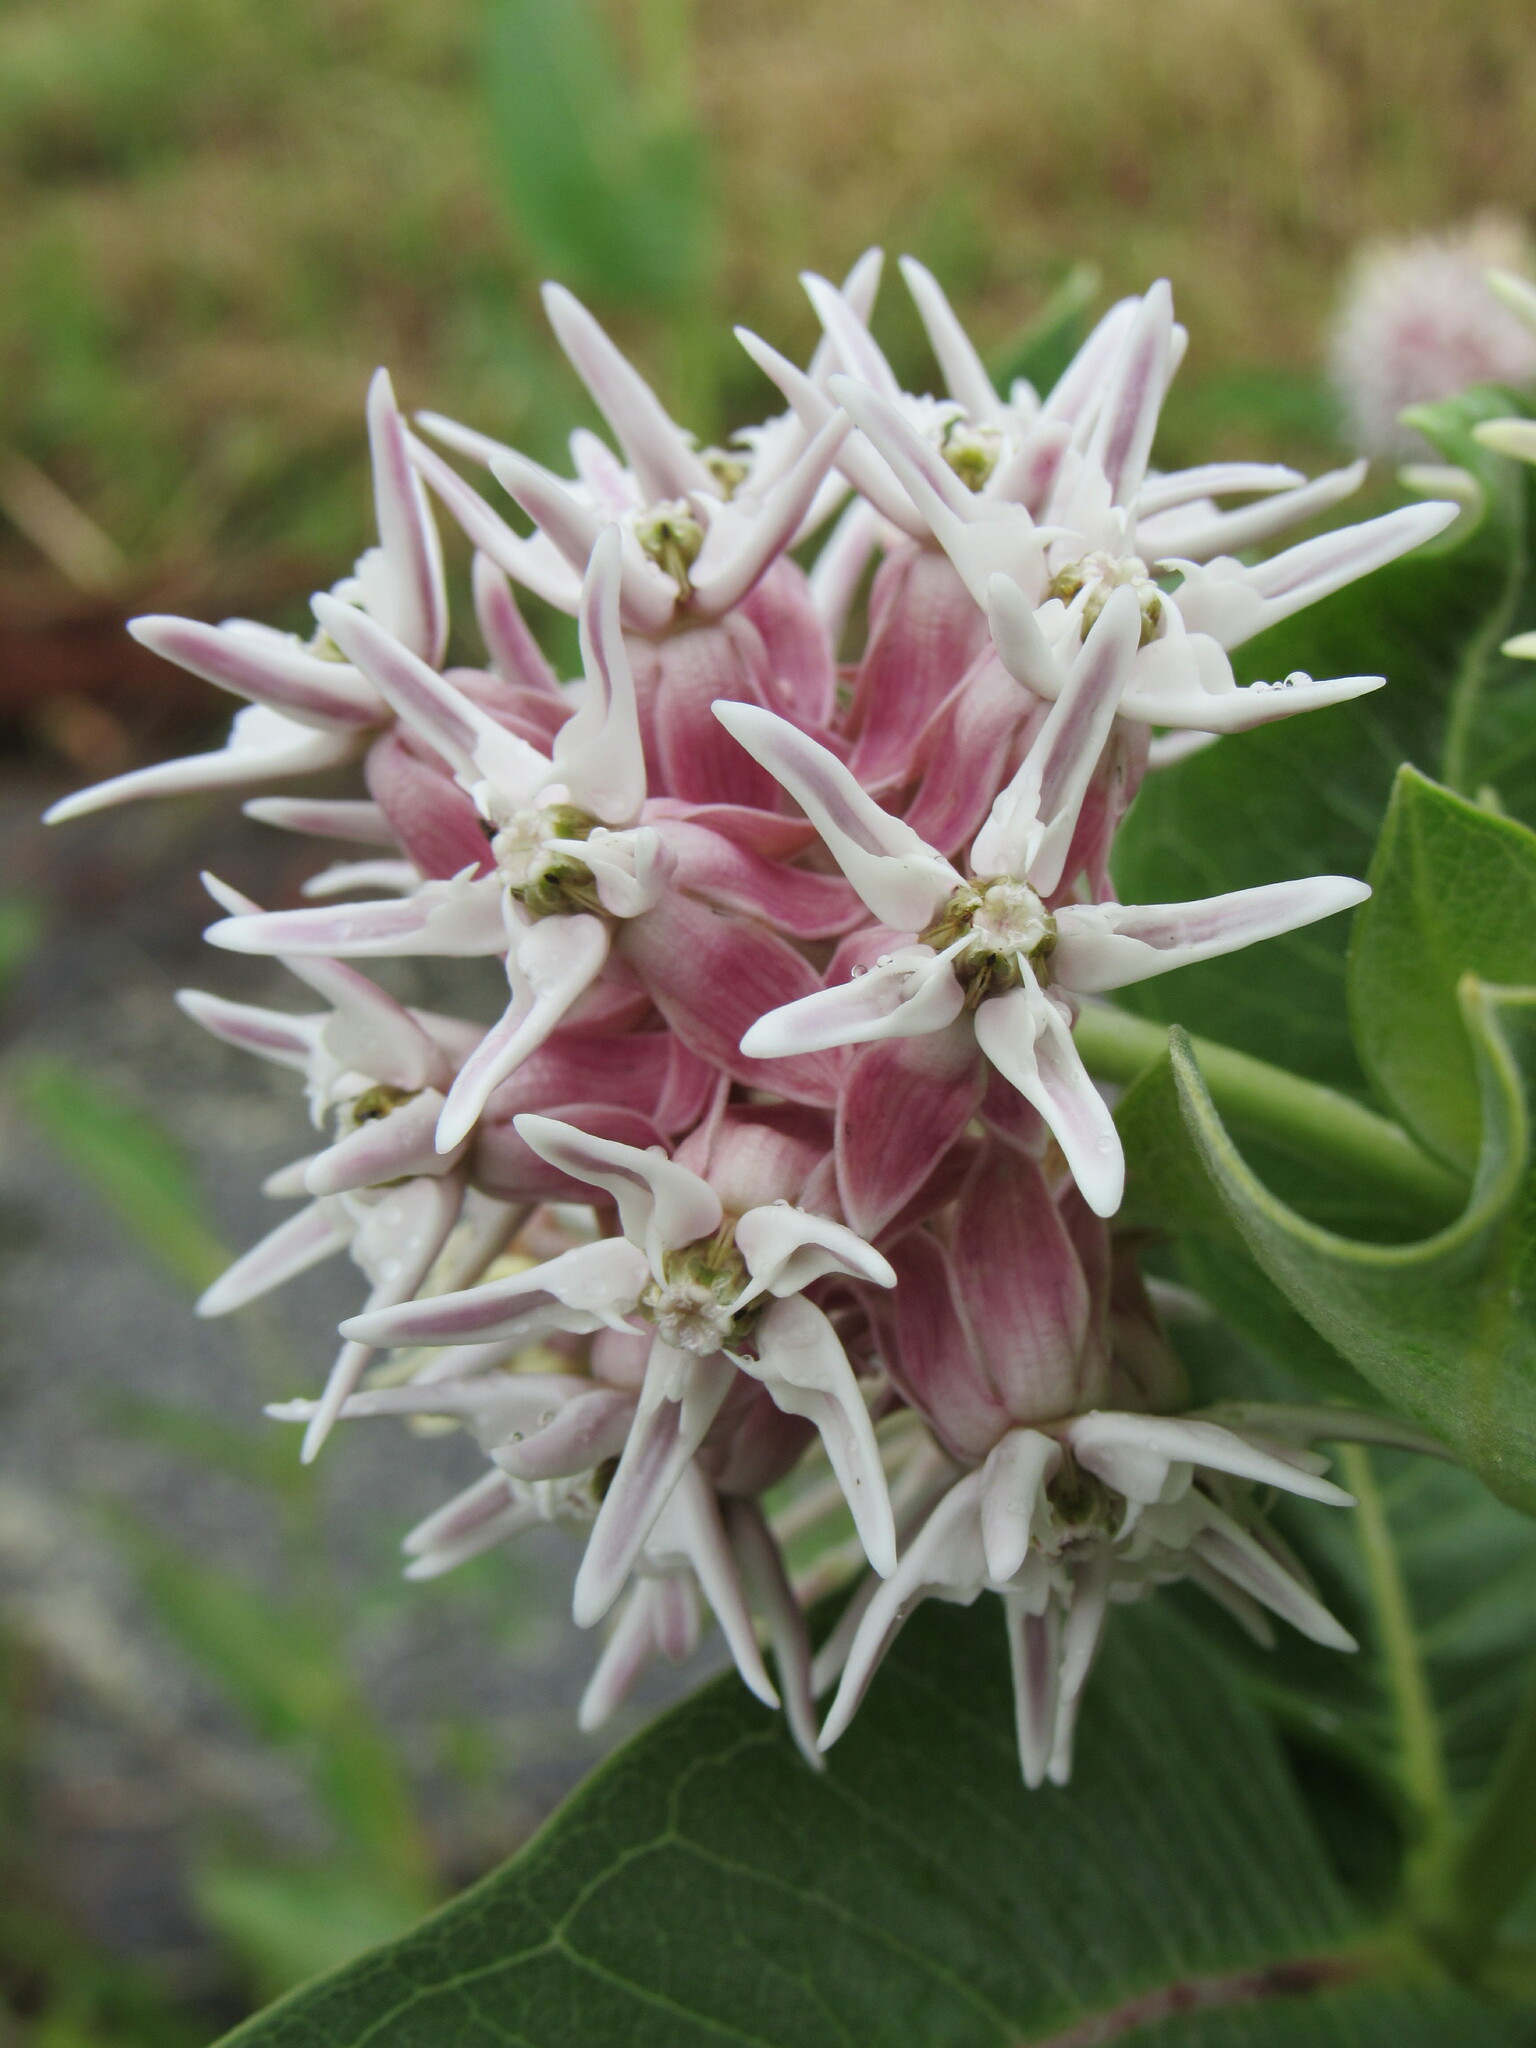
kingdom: Plantae
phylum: Tracheophyta
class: Magnoliopsida
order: Gentianales
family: Apocynaceae
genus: Asclepias
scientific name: Asclepias speciosa
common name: Showy milkweed
